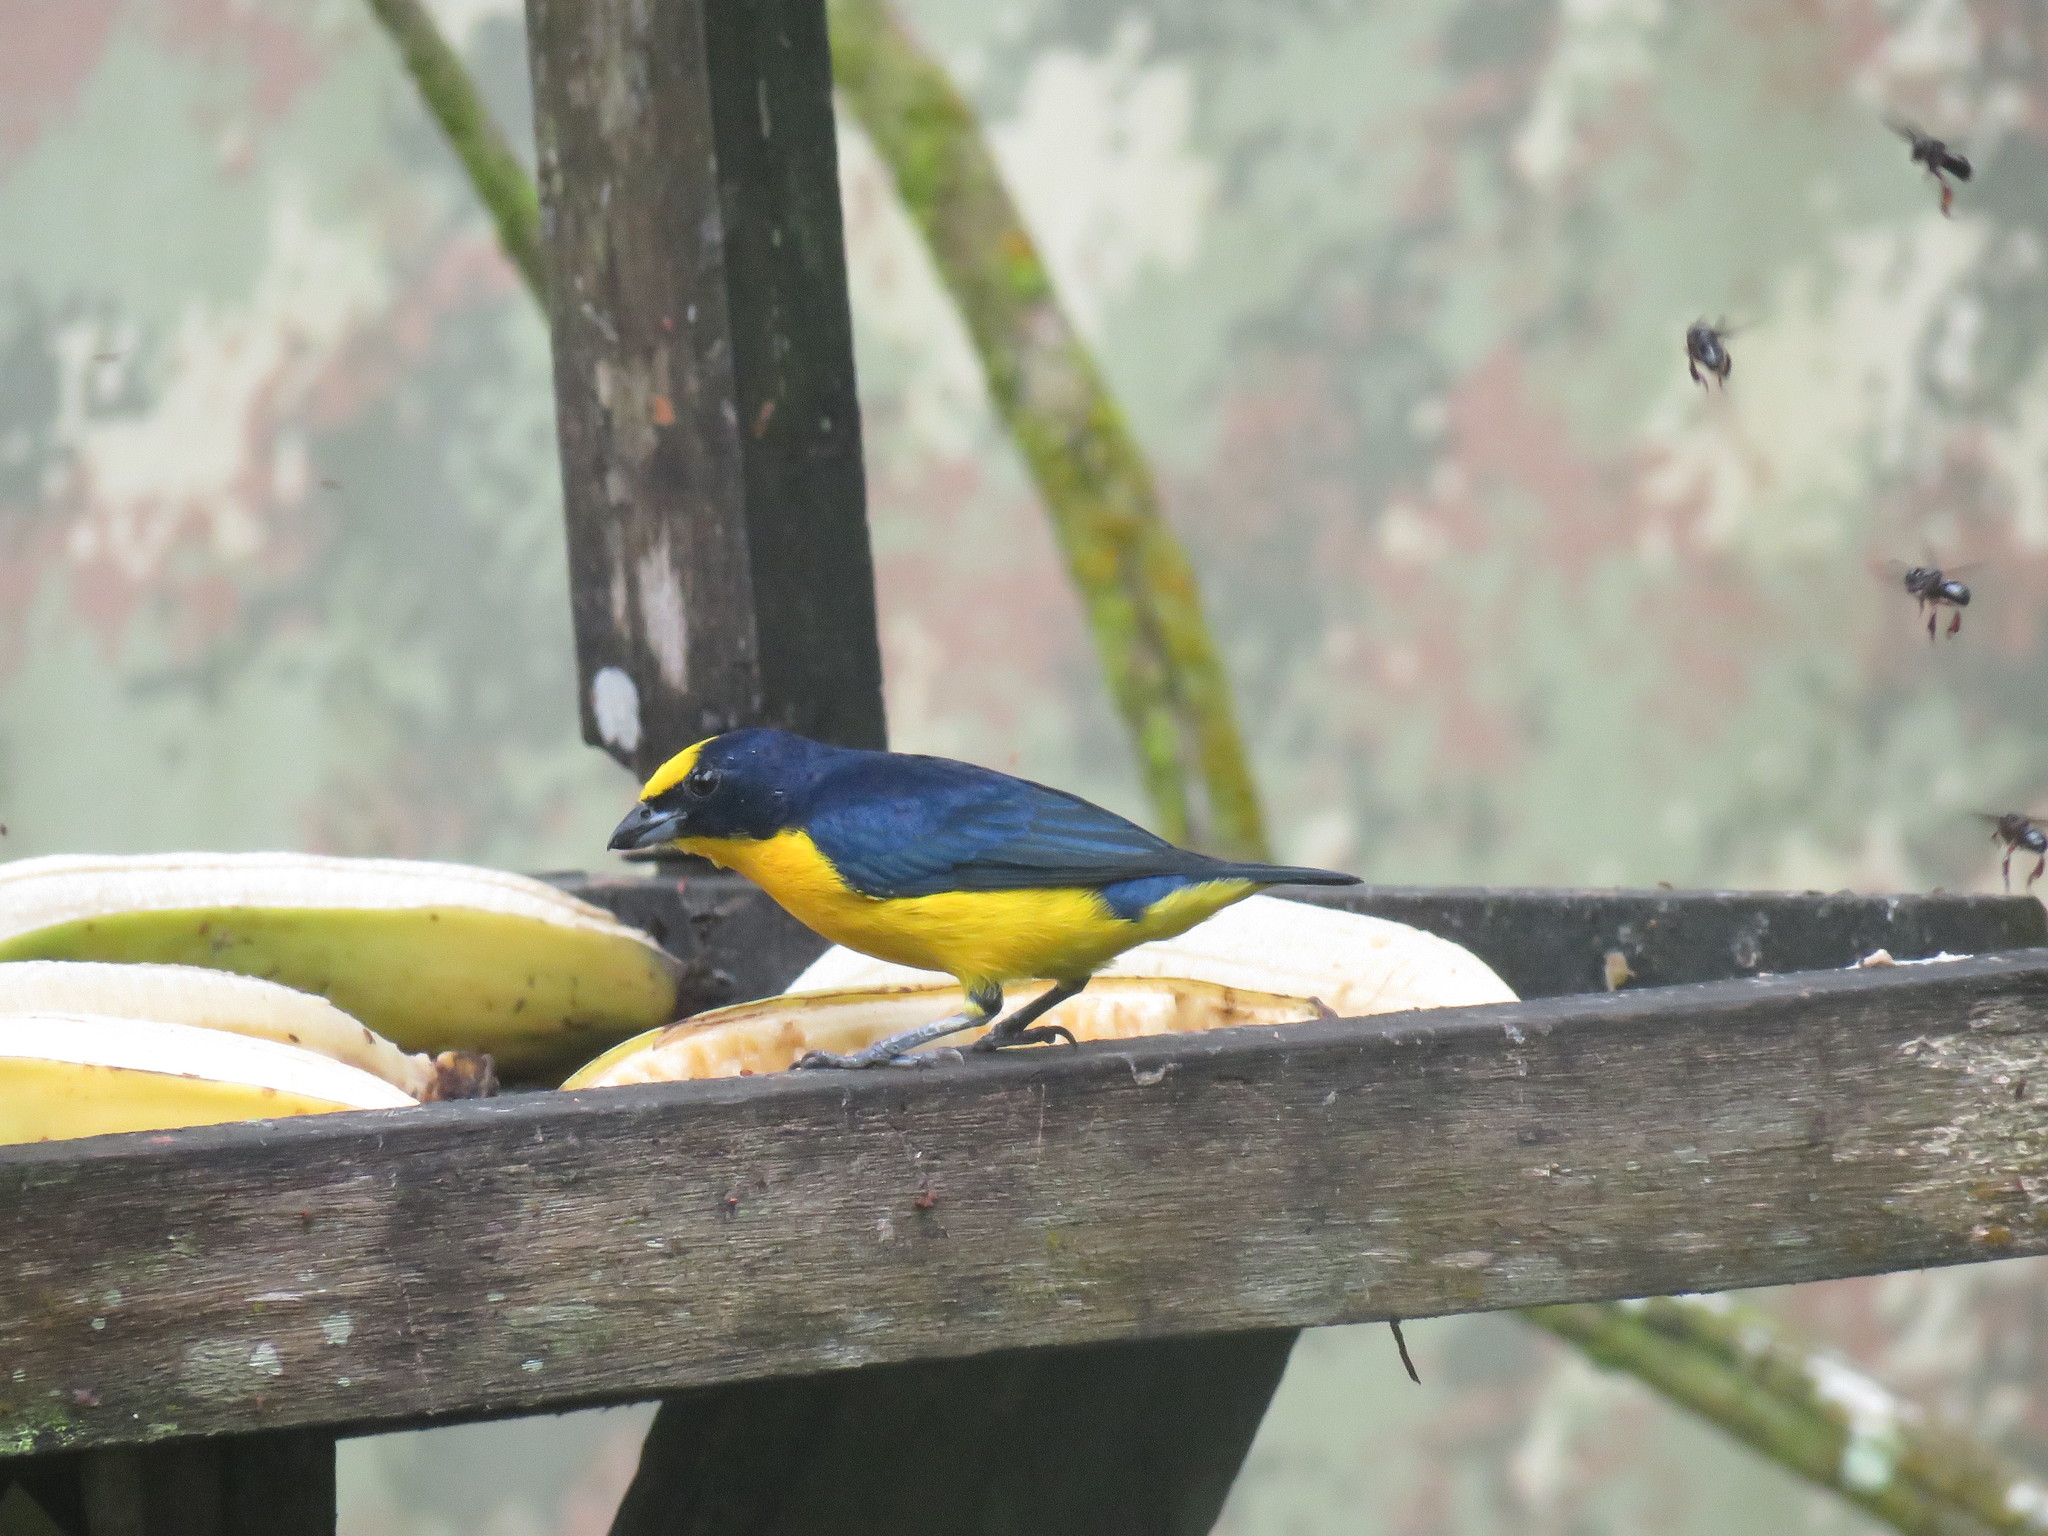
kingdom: Animalia
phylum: Chordata
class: Aves
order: Passeriformes
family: Fringillidae
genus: Euphonia
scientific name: Euphonia laniirostris
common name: Thick-billed euphonia
